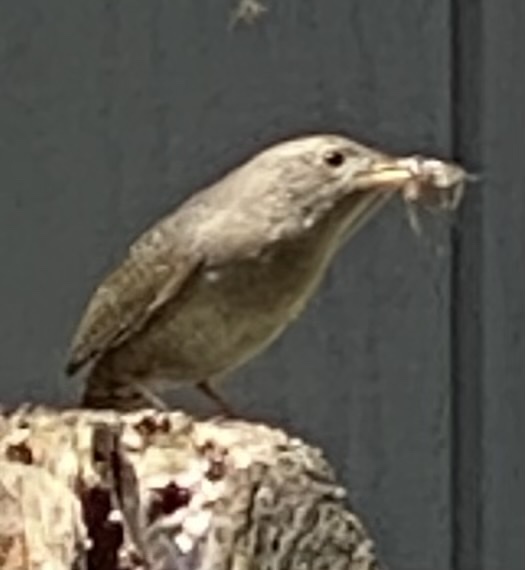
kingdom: Animalia
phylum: Chordata
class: Aves
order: Passeriformes
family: Troglodytidae
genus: Troglodytes
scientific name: Troglodytes aedon
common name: House wren
